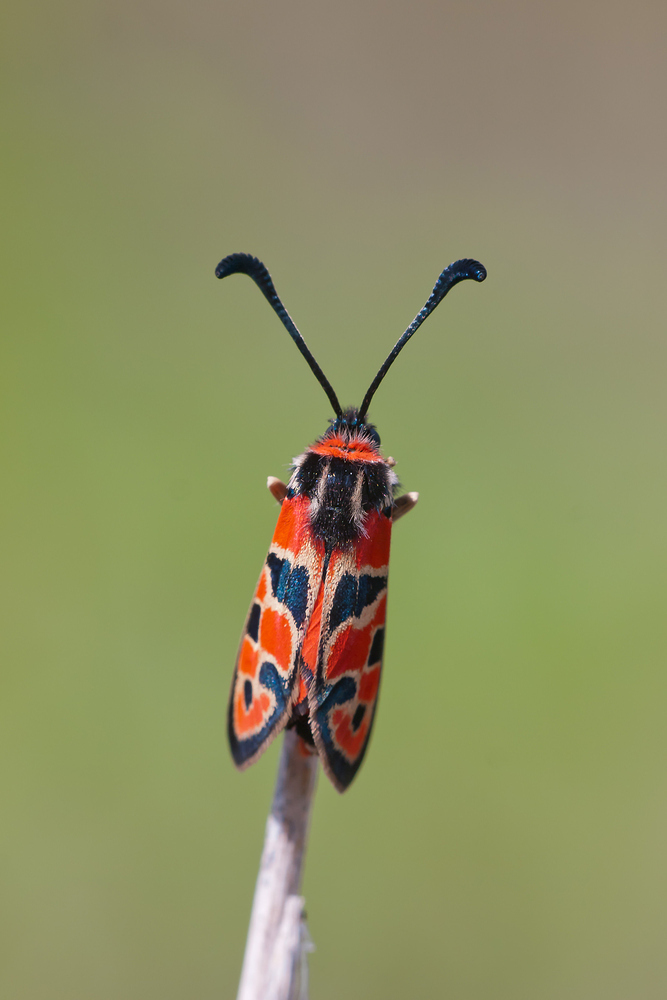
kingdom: Animalia
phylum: Arthropoda
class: Insecta
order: Lepidoptera
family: Zygaenidae
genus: Zygaena
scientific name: Zygaena fausta
